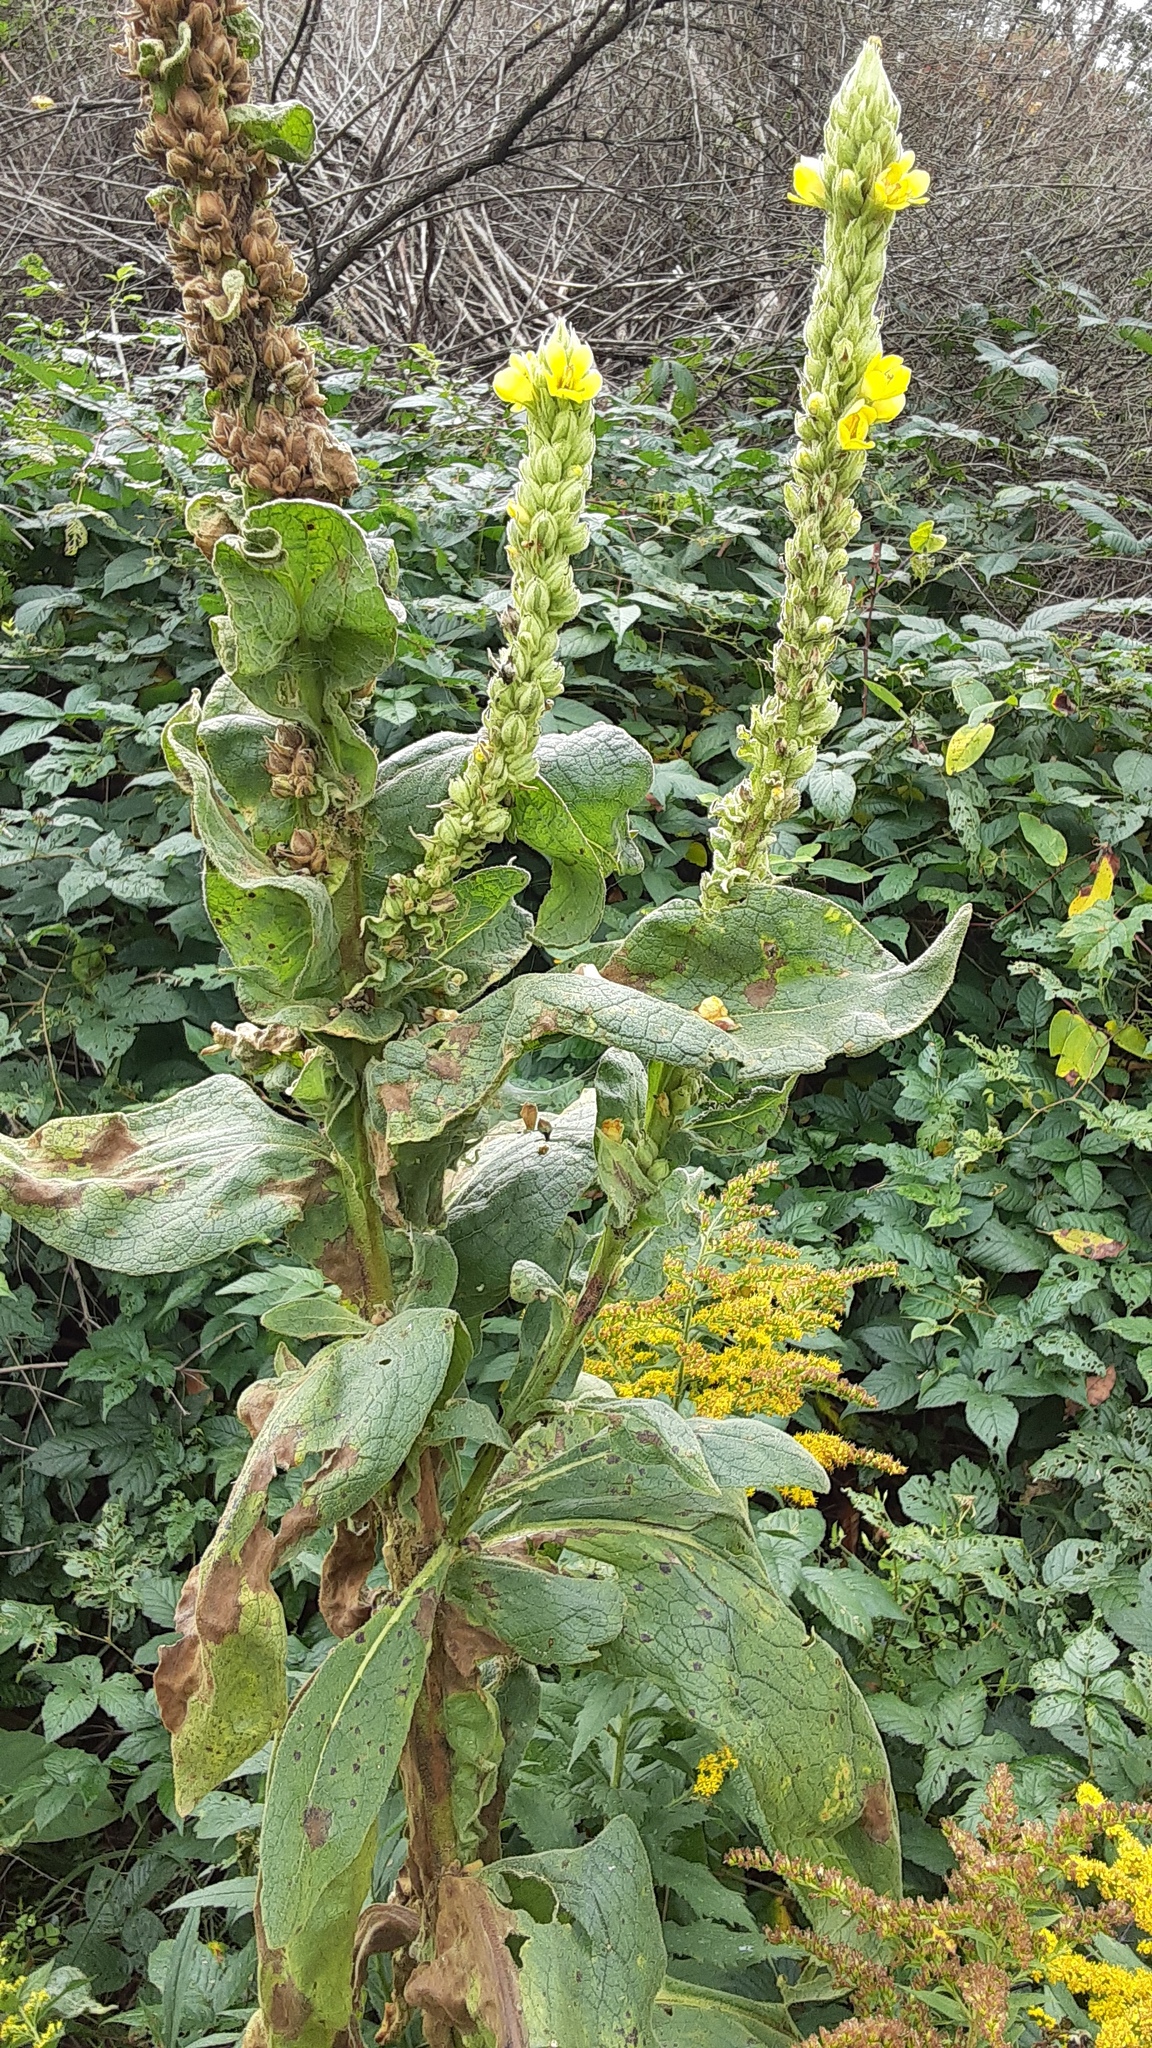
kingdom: Plantae
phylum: Tracheophyta
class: Magnoliopsida
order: Lamiales
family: Scrophulariaceae
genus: Verbascum
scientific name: Verbascum thapsus
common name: Common mullein
